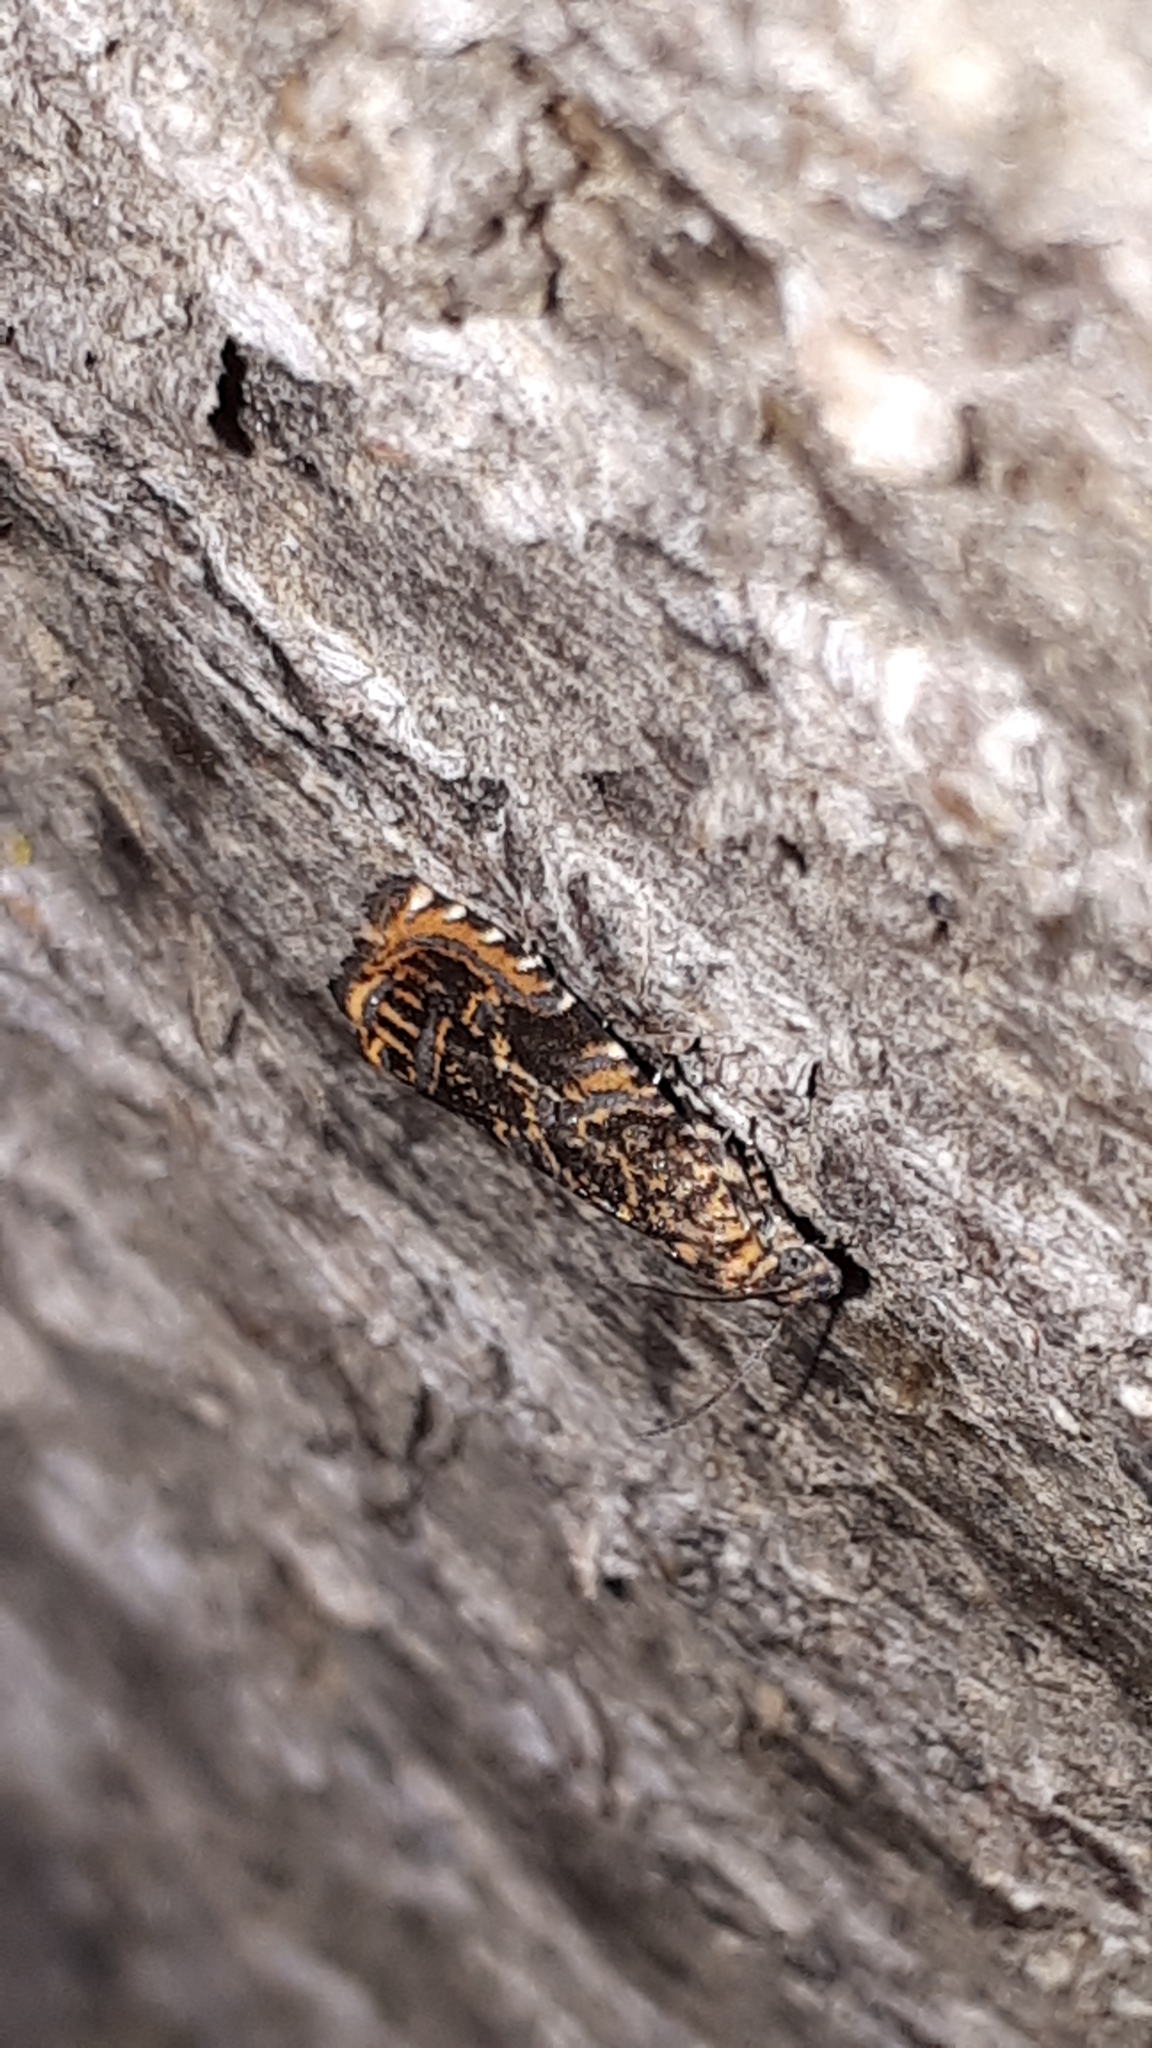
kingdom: Animalia
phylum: Arthropoda
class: Insecta
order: Lepidoptera
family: Tortricidae
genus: Enarmonia
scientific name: Enarmonia formosana
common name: Cherry bark tortrix
